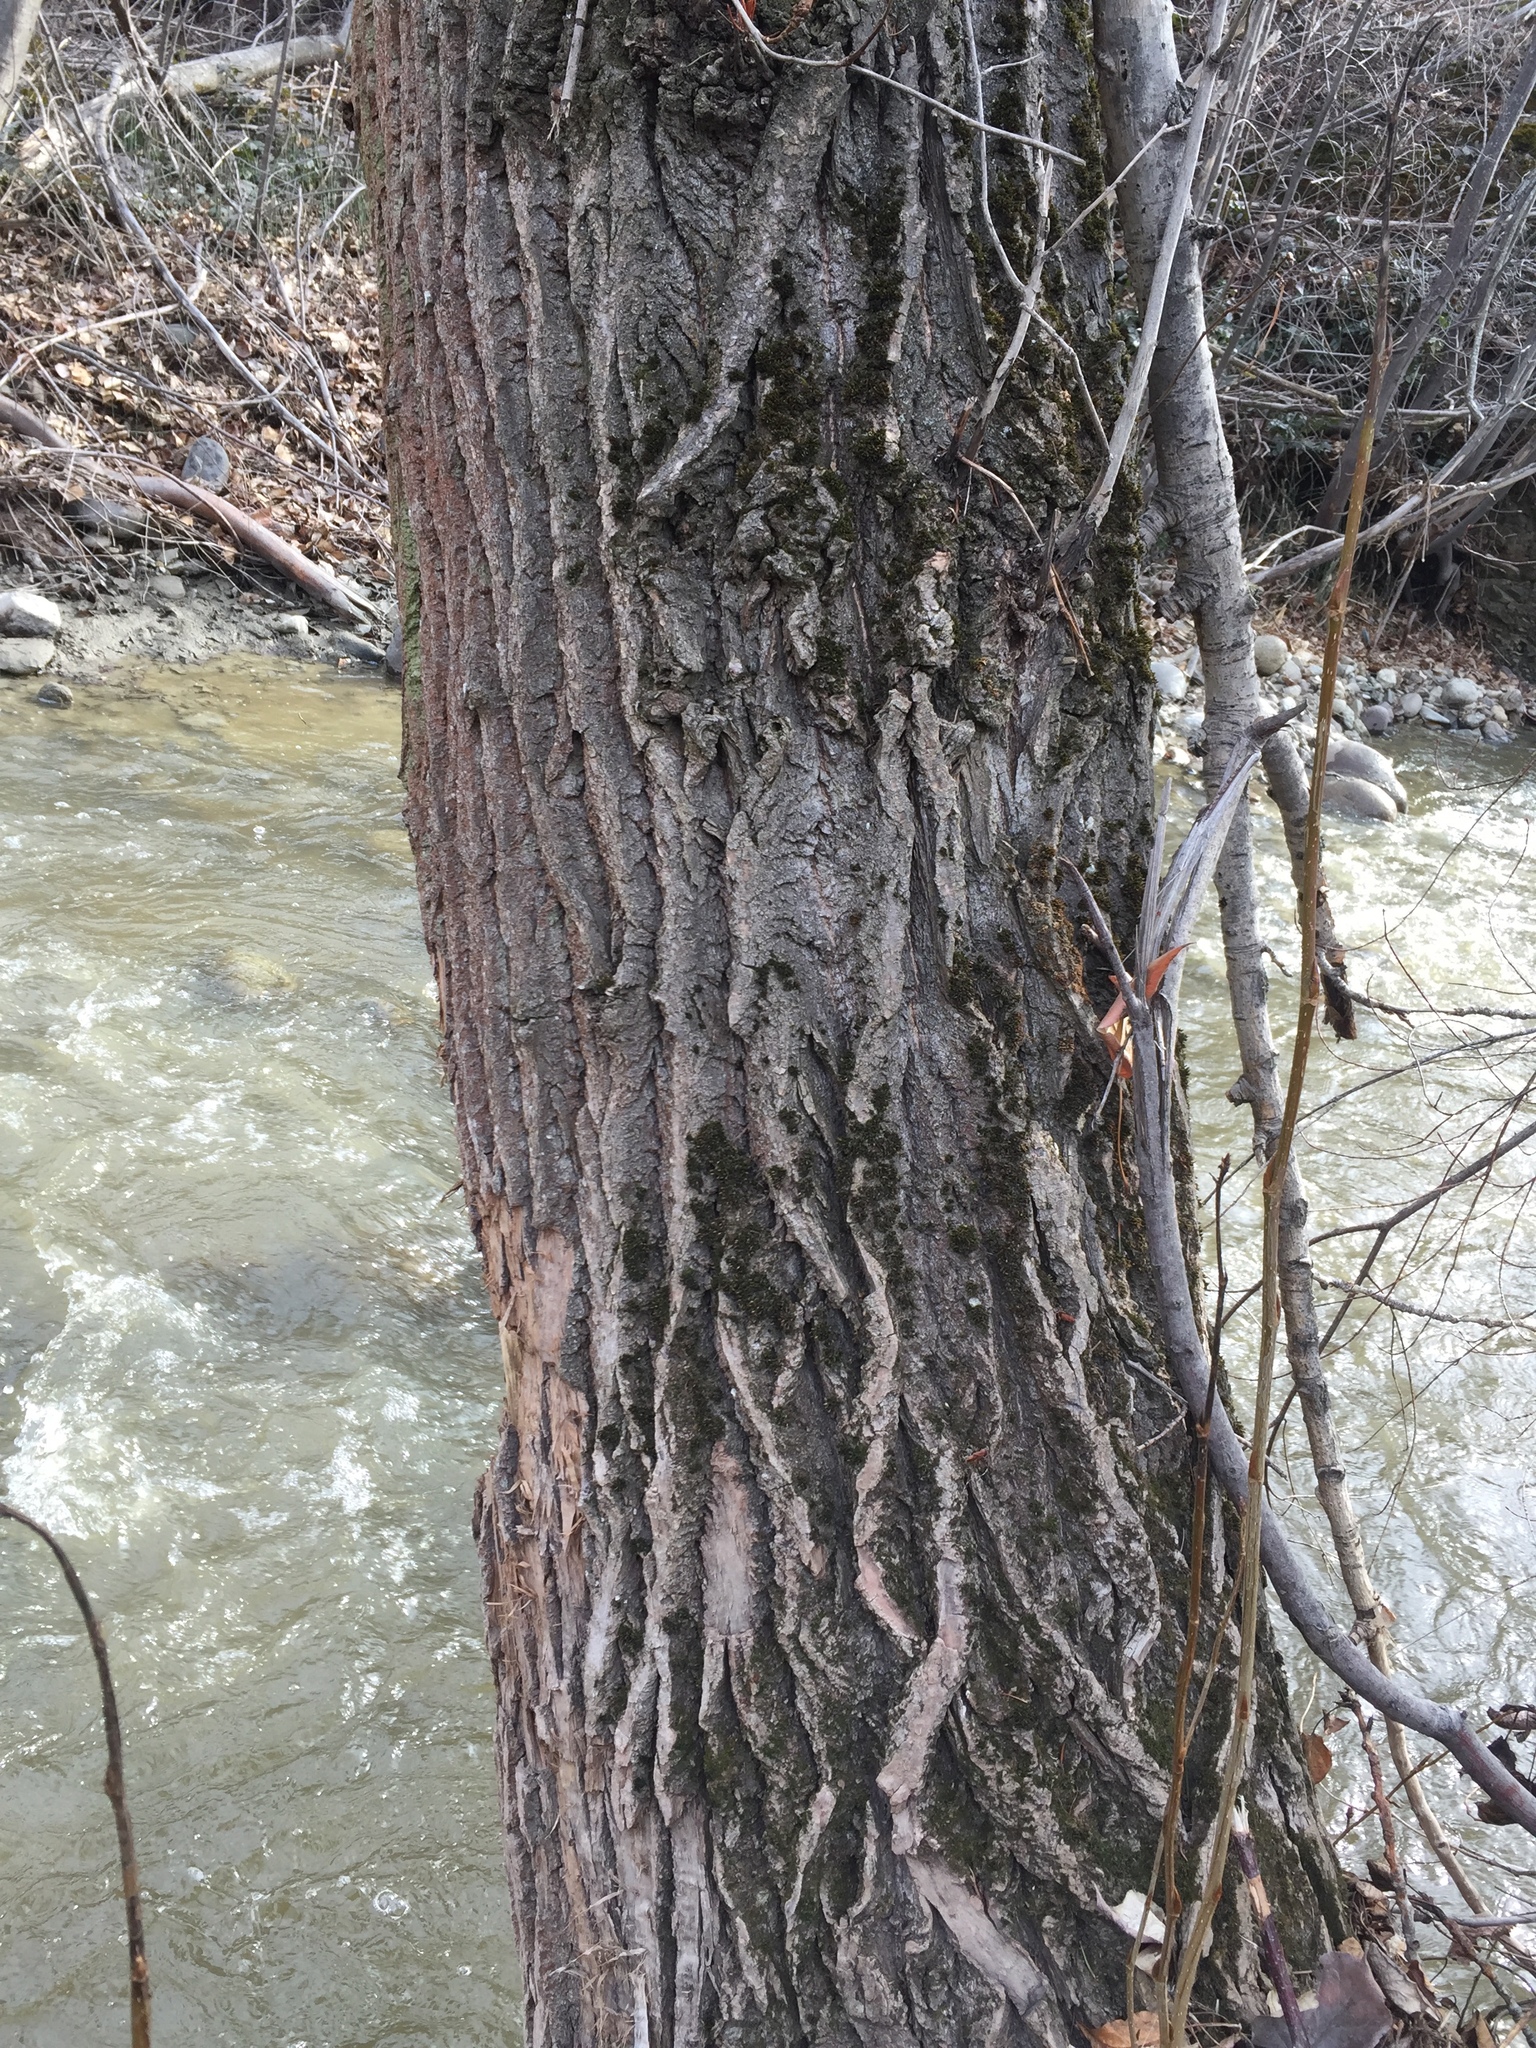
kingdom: Plantae
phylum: Tracheophyta
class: Magnoliopsida
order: Malpighiales
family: Salicaceae
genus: Populus
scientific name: Populus trichocarpa
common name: Black cottonwood
